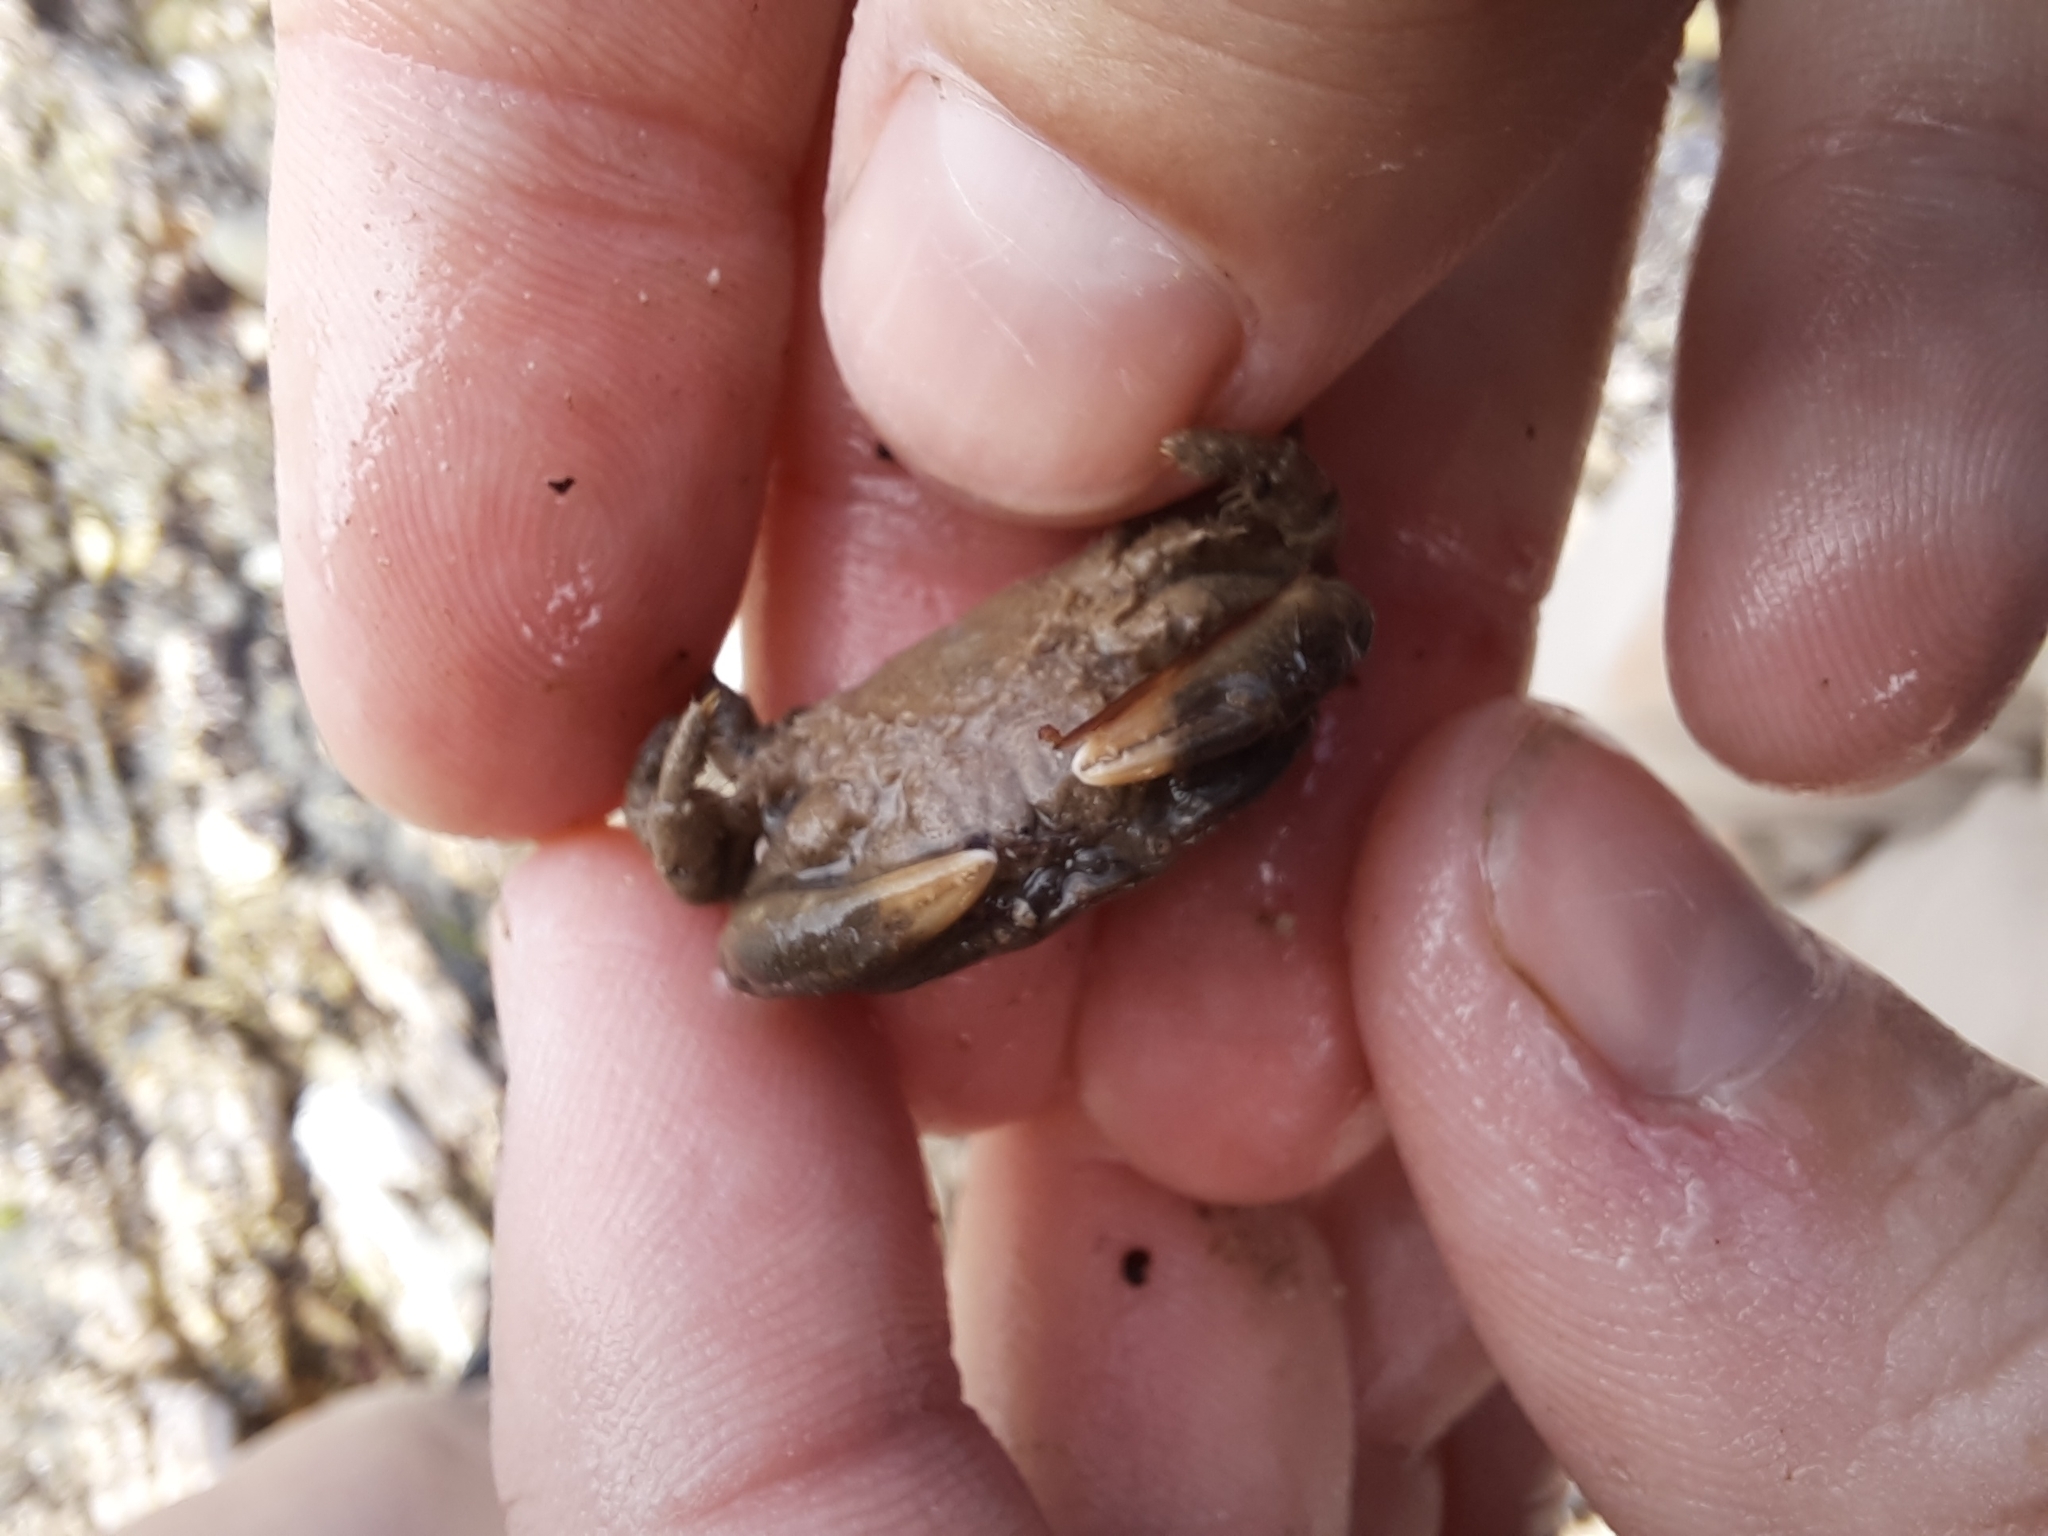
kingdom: Animalia
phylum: Arthropoda
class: Malacostraca
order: Decapoda
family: Heteroziidae
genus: Heterozius
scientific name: Heterozius rotundifrons
